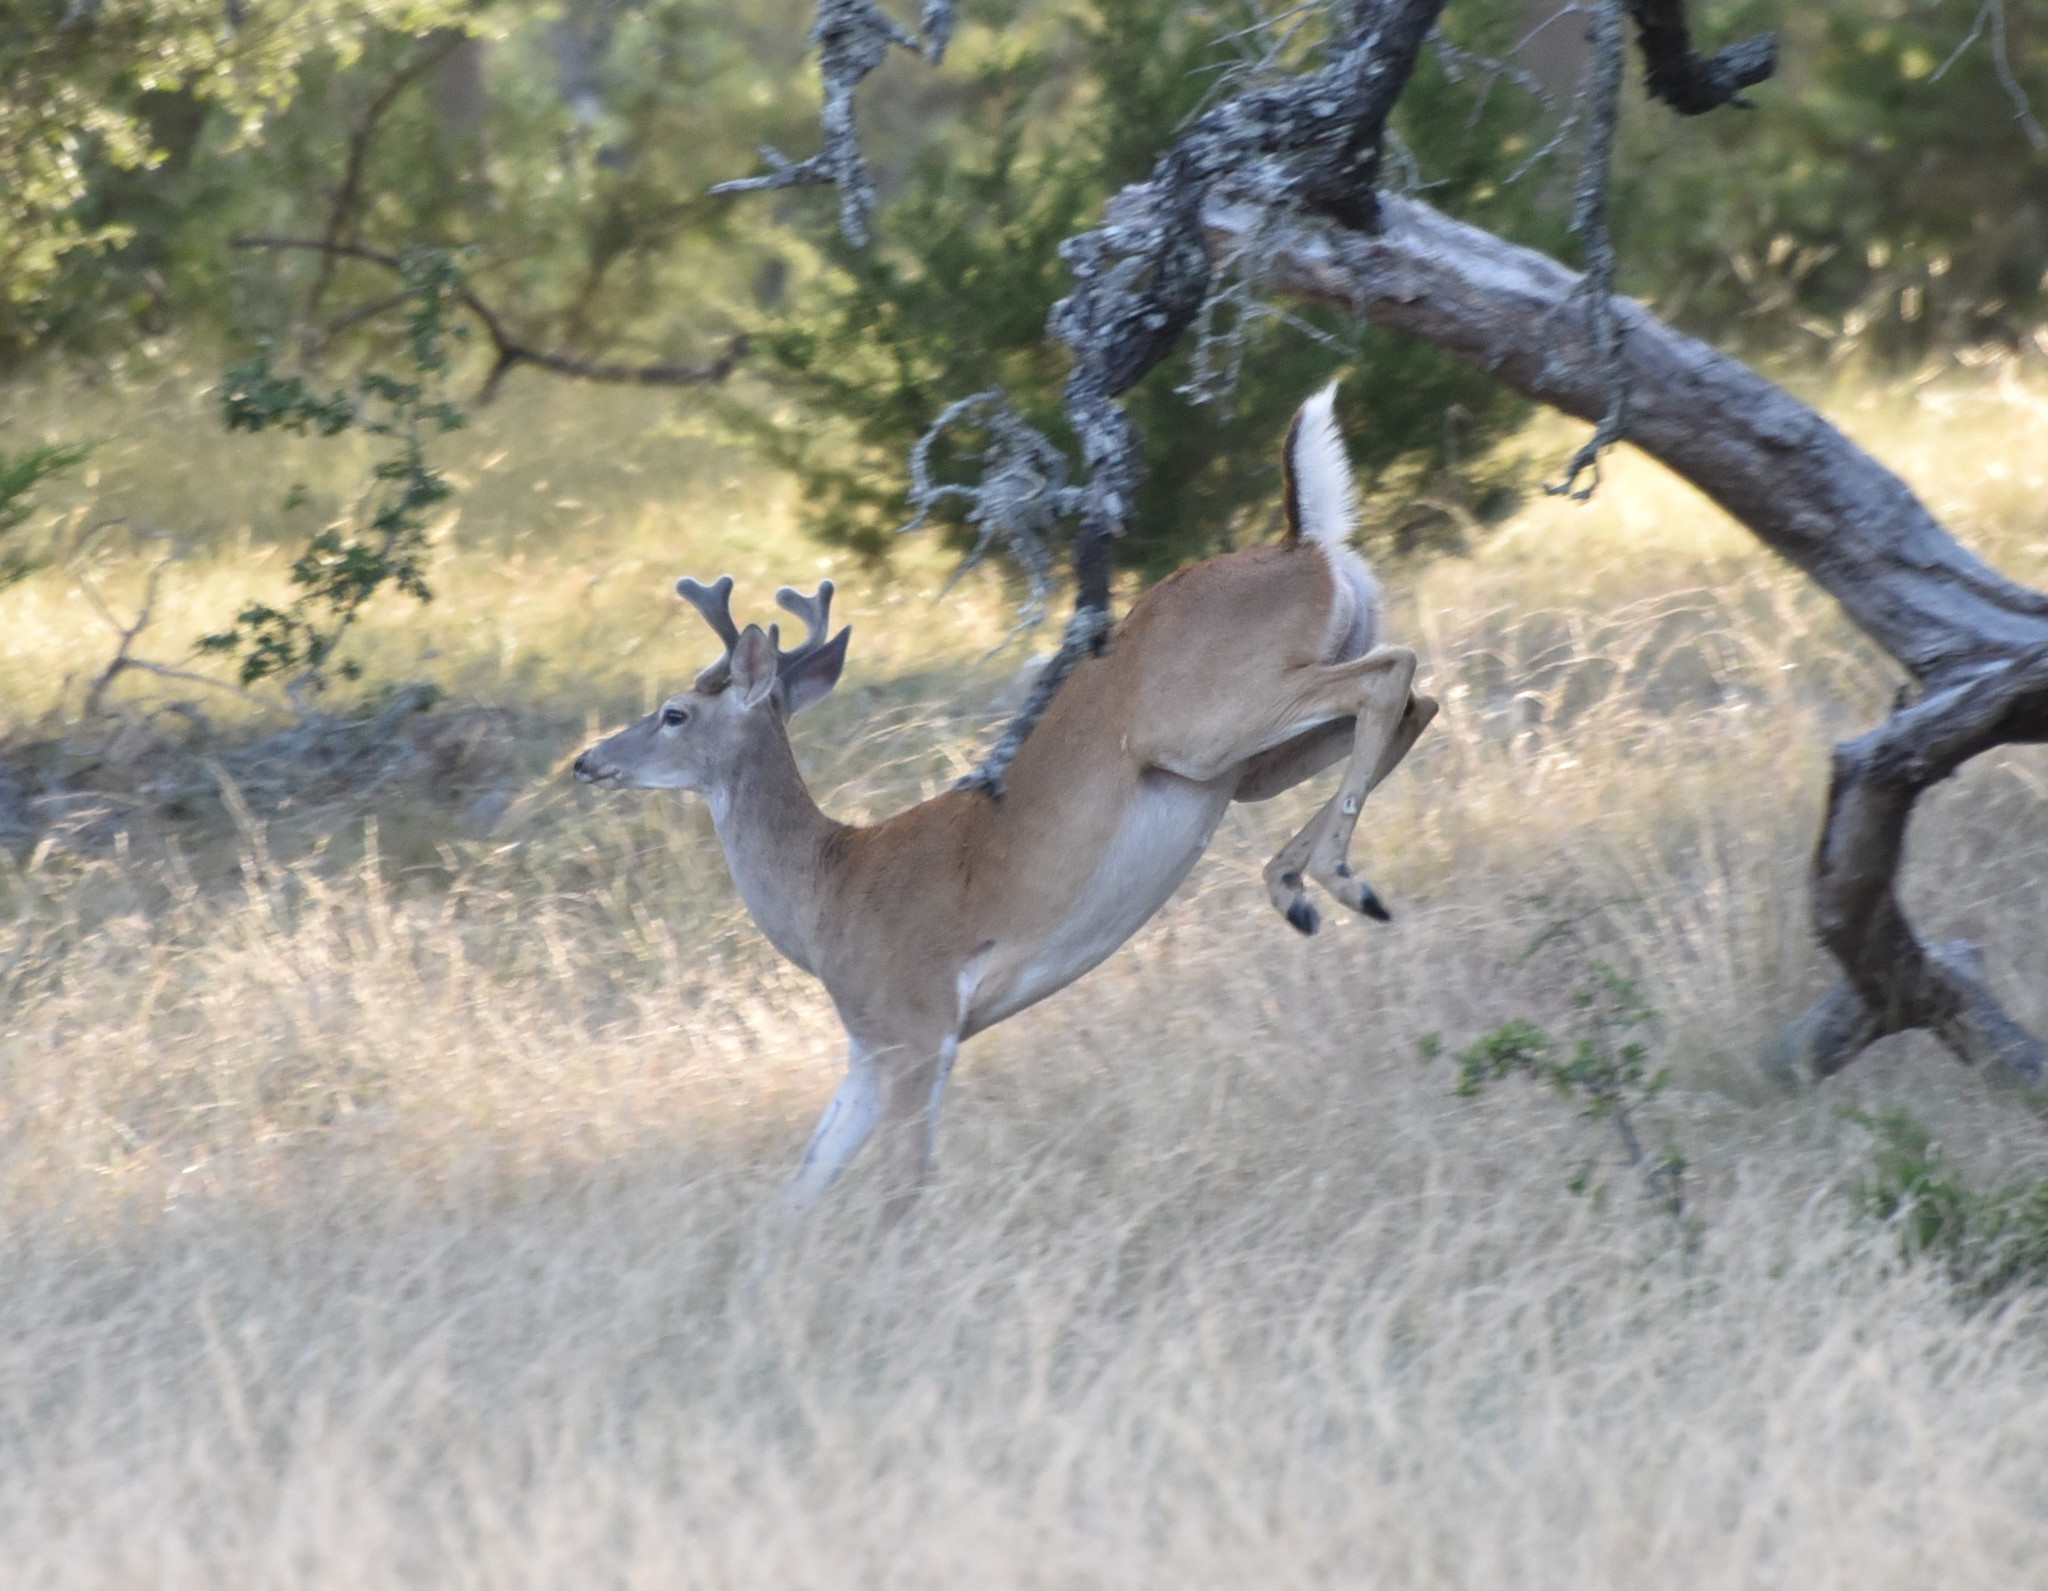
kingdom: Animalia
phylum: Chordata
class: Mammalia
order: Artiodactyla
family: Cervidae
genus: Odocoileus
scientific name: Odocoileus virginianus
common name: White-tailed deer
